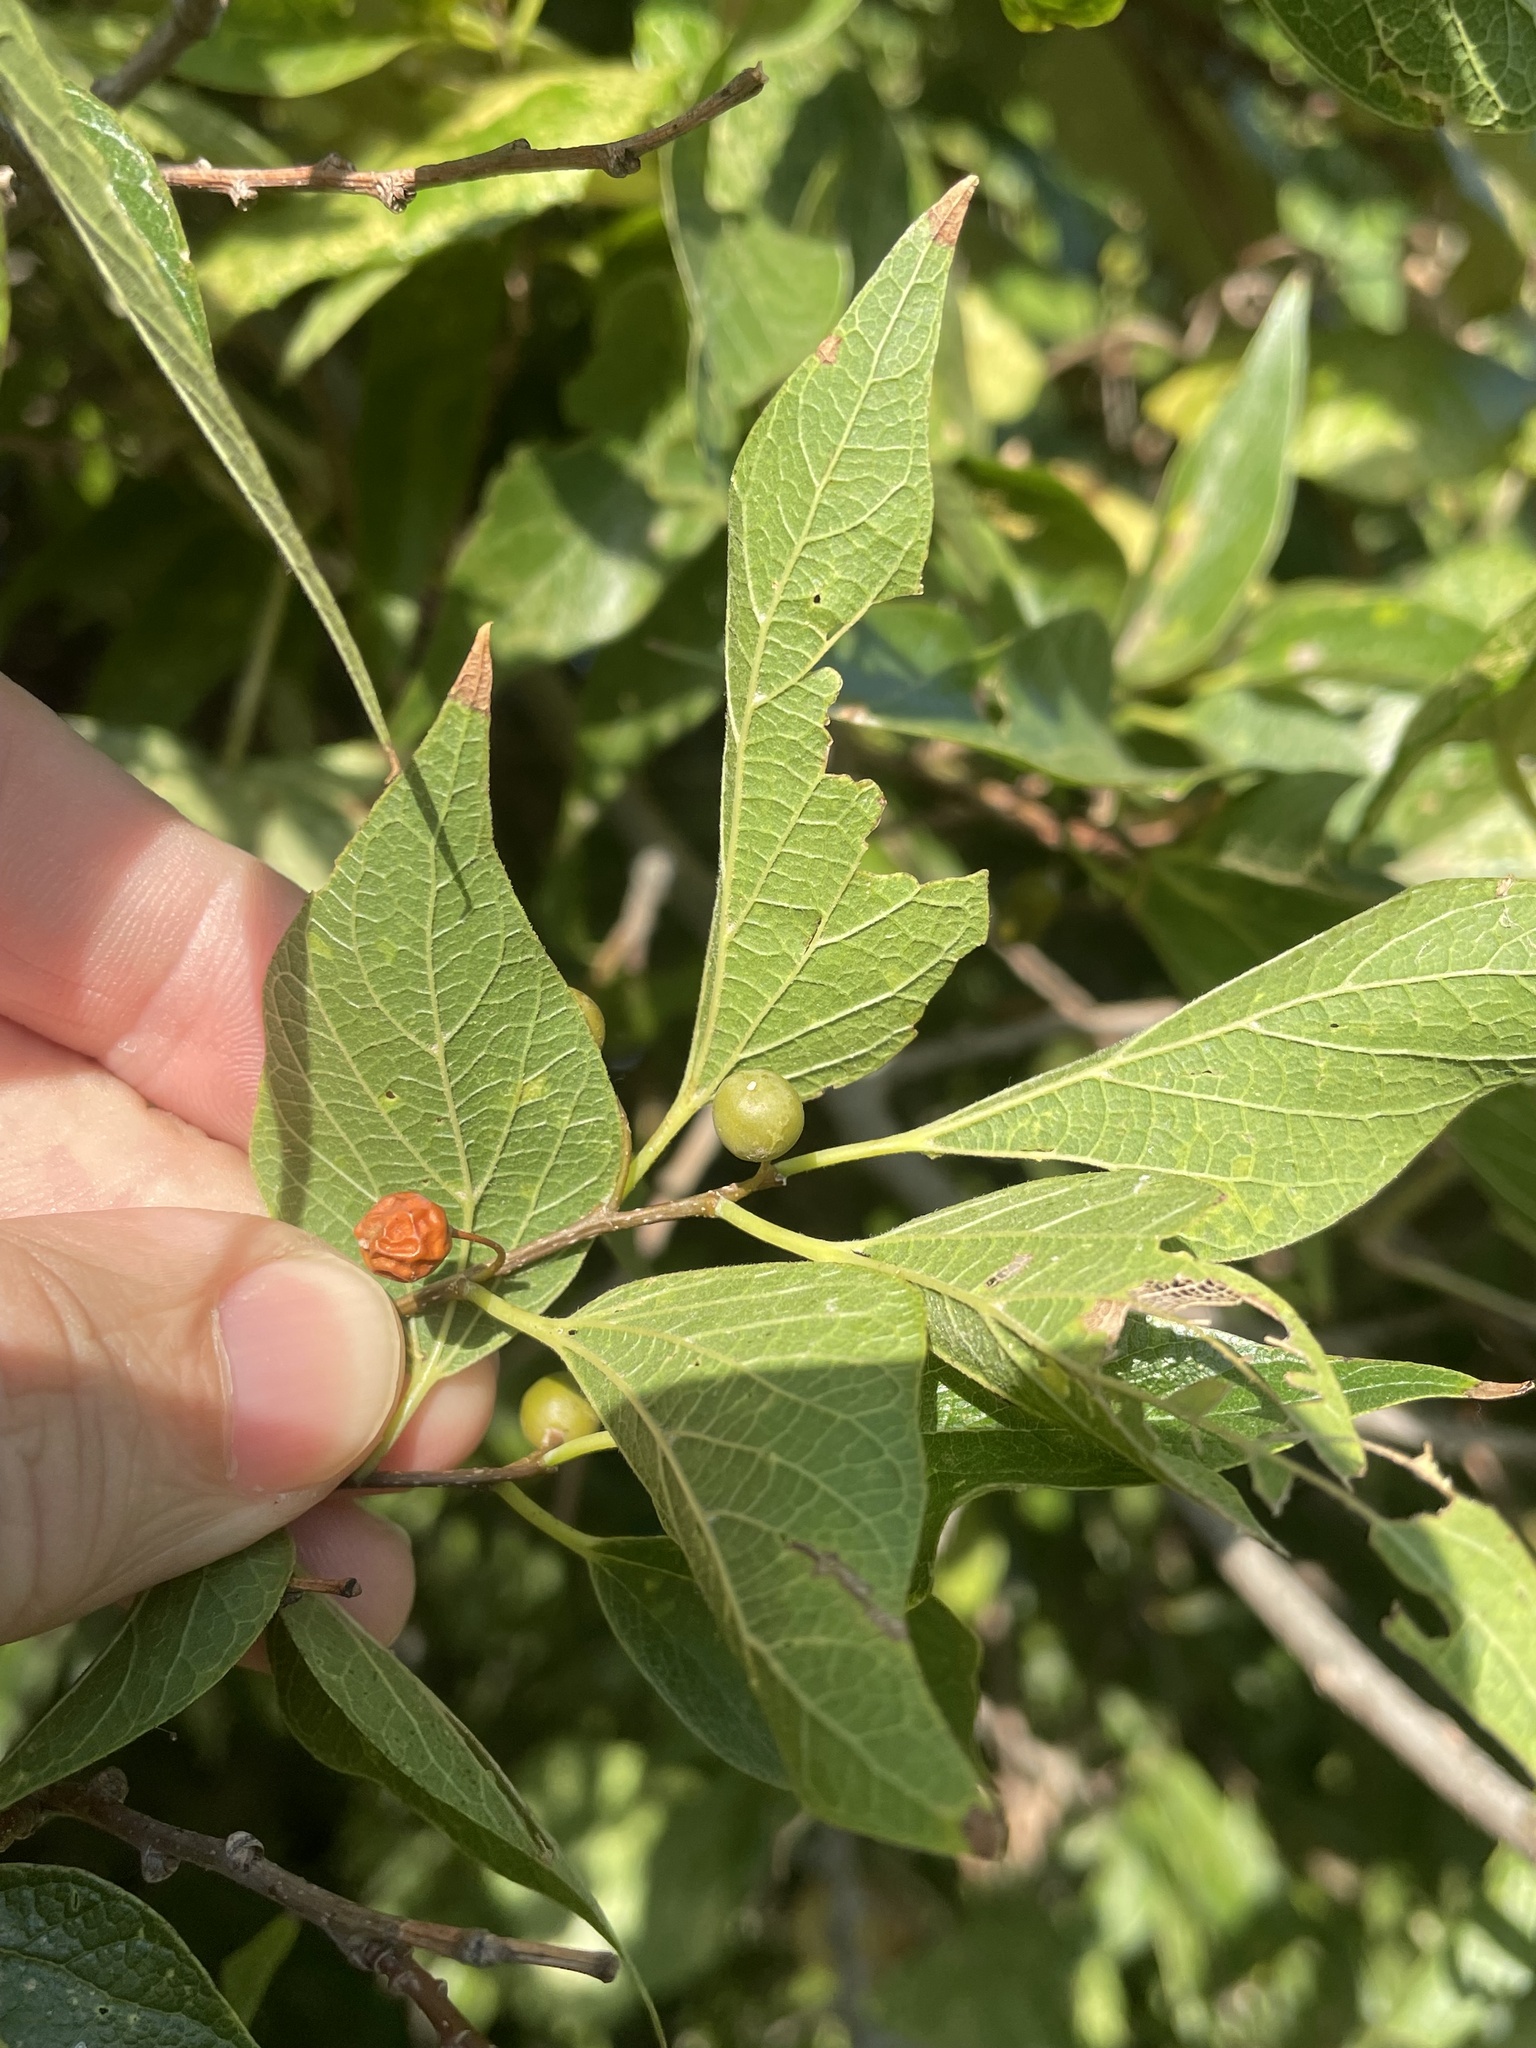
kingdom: Plantae
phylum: Tracheophyta
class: Magnoliopsida
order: Rosales
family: Cannabaceae
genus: Celtis
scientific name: Celtis laevigata
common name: Sugarberry
